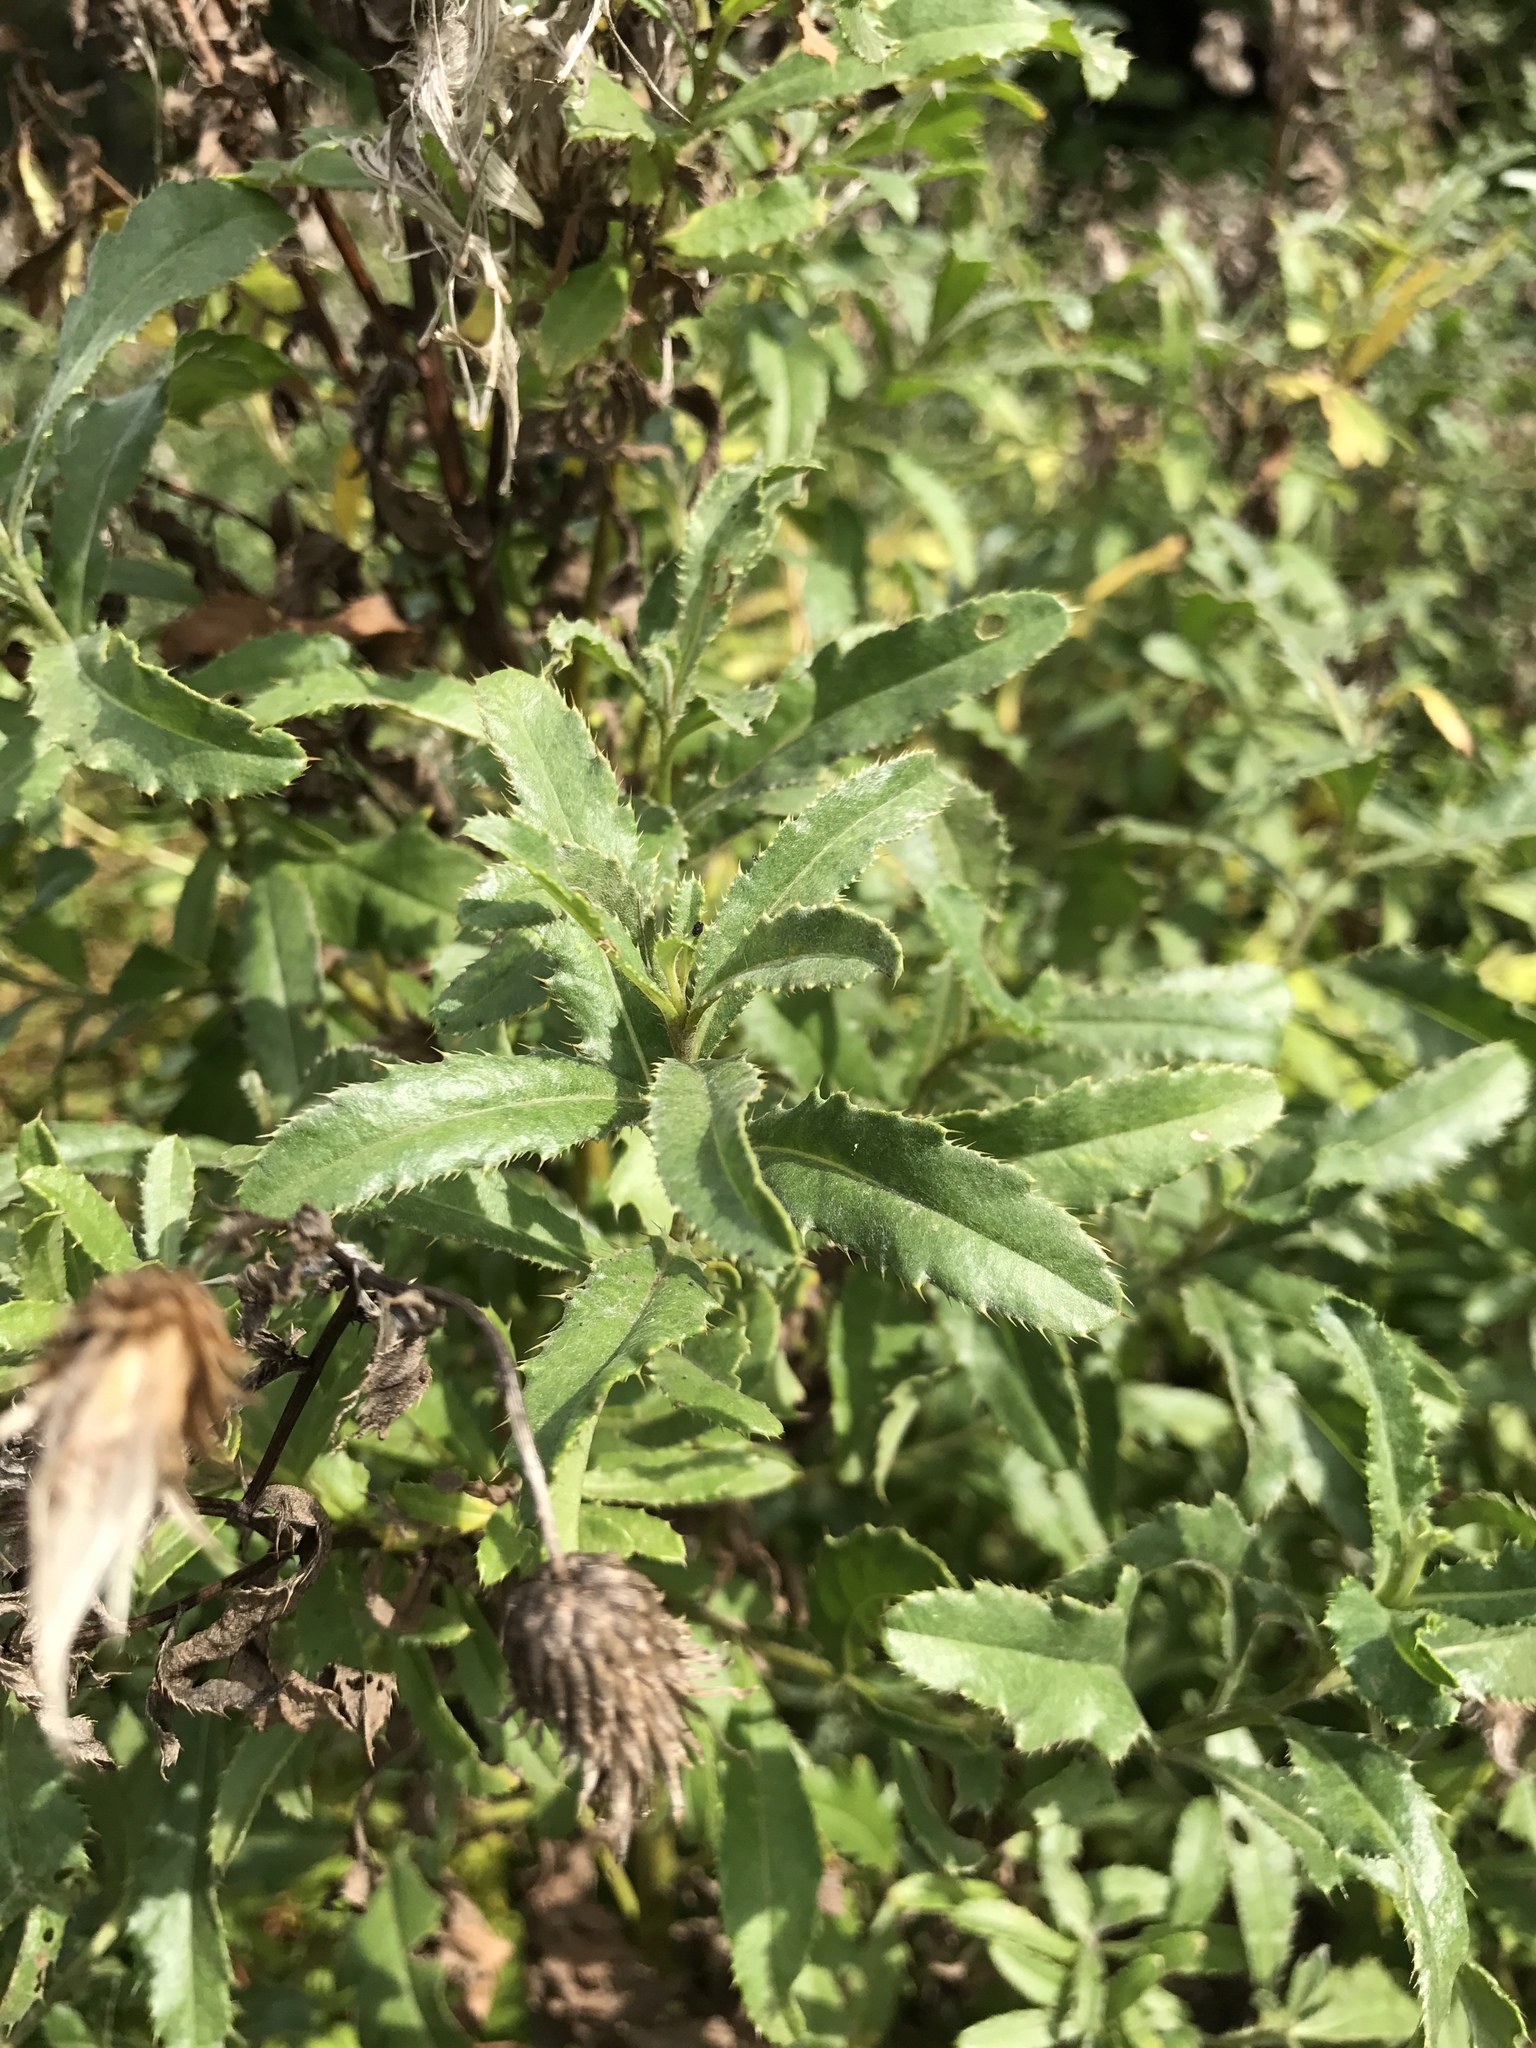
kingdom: Plantae
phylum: Tracheophyta
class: Magnoliopsida
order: Asterales
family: Asteraceae
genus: Cirsium
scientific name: Cirsium arvense
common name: Creeping thistle
